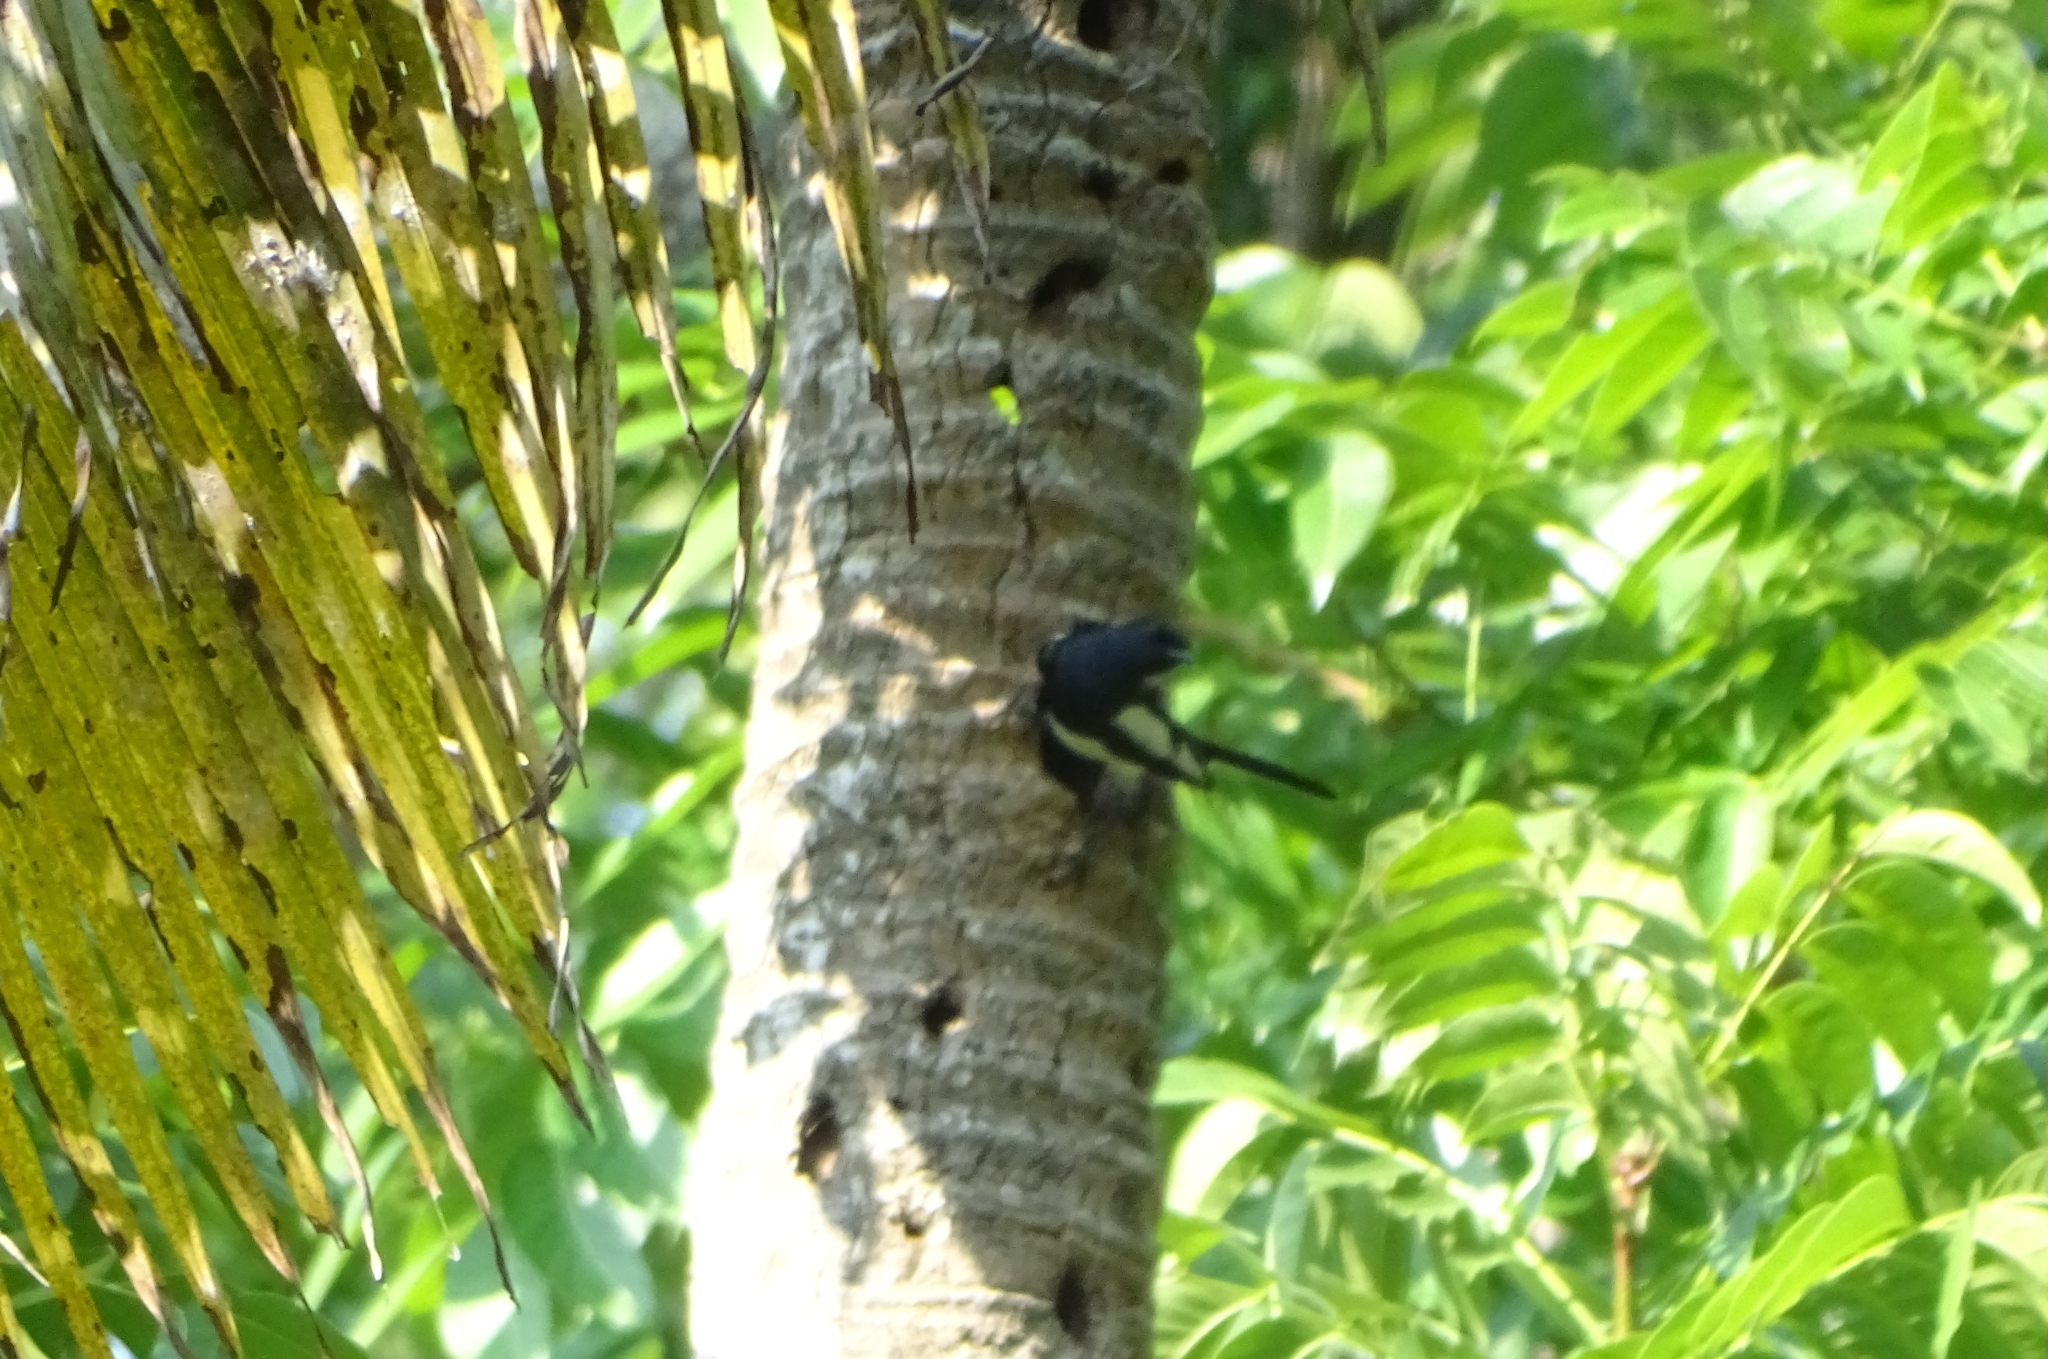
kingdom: Animalia
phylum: Chordata
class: Aves
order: Passeriformes
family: Muscicapidae
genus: Copsychus
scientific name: Copsychus saularis
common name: Oriental magpie-robin
